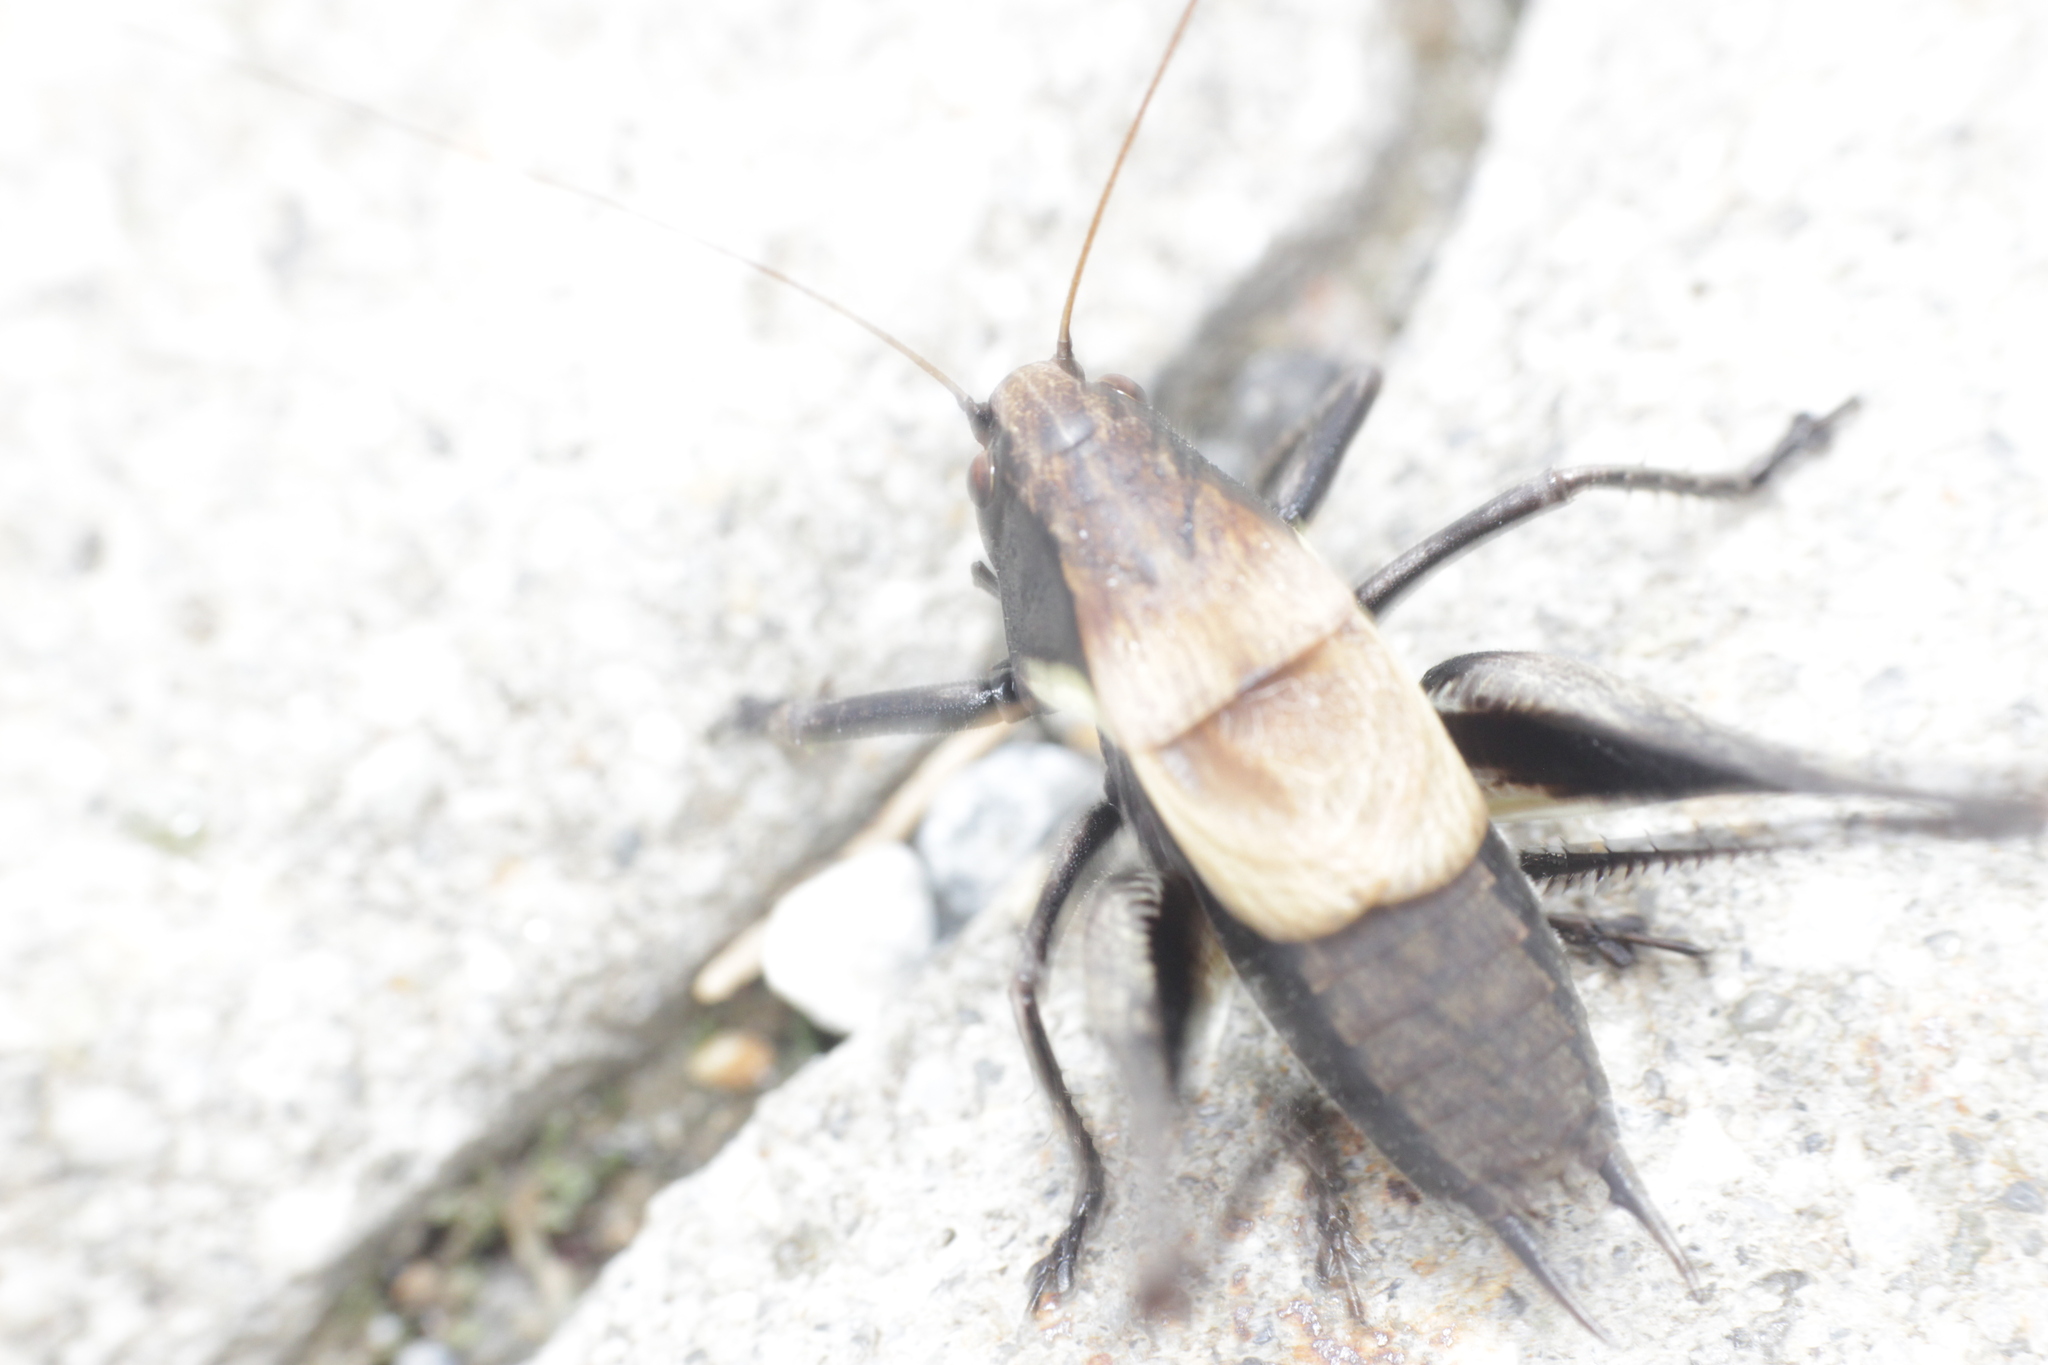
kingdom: Animalia
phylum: Arthropoda
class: Insecta
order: Orthoptera
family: Tettigoniidae
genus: Pholidoptera
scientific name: Pholidoptera aptera
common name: Alpine dark bush-cricket
